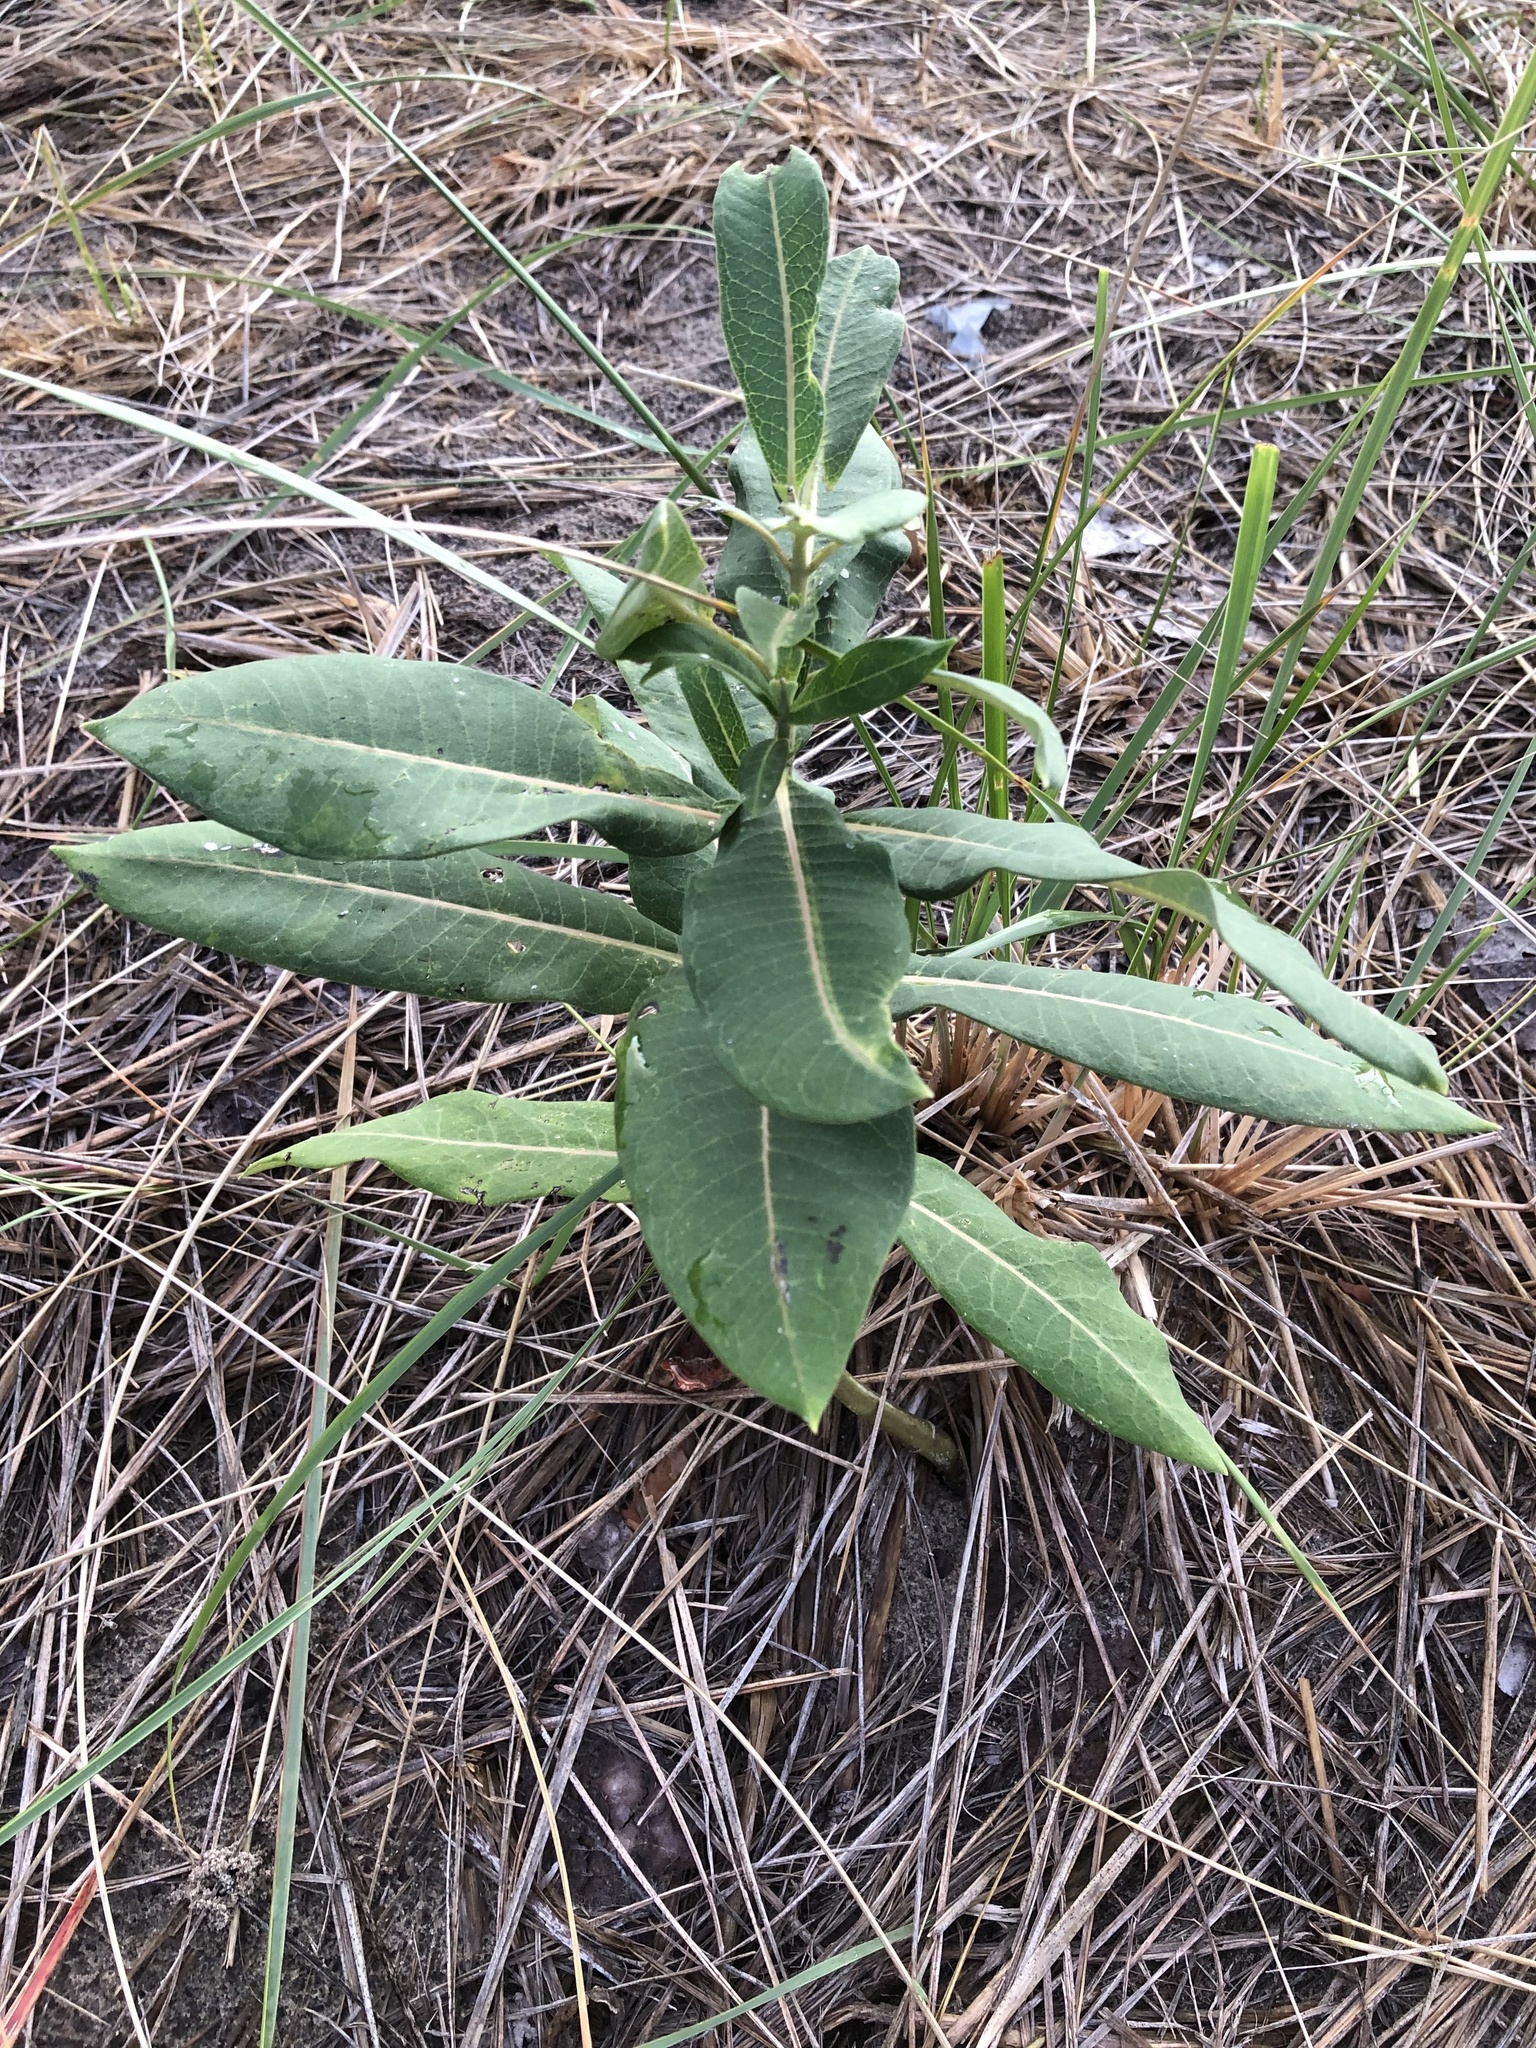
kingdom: Plantae
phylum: Tracheophyta
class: Magnoliopsida
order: Gentianales
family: Apocynaceae
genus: Asclepias
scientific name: Asclepias syriaca
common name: Common milkweed
